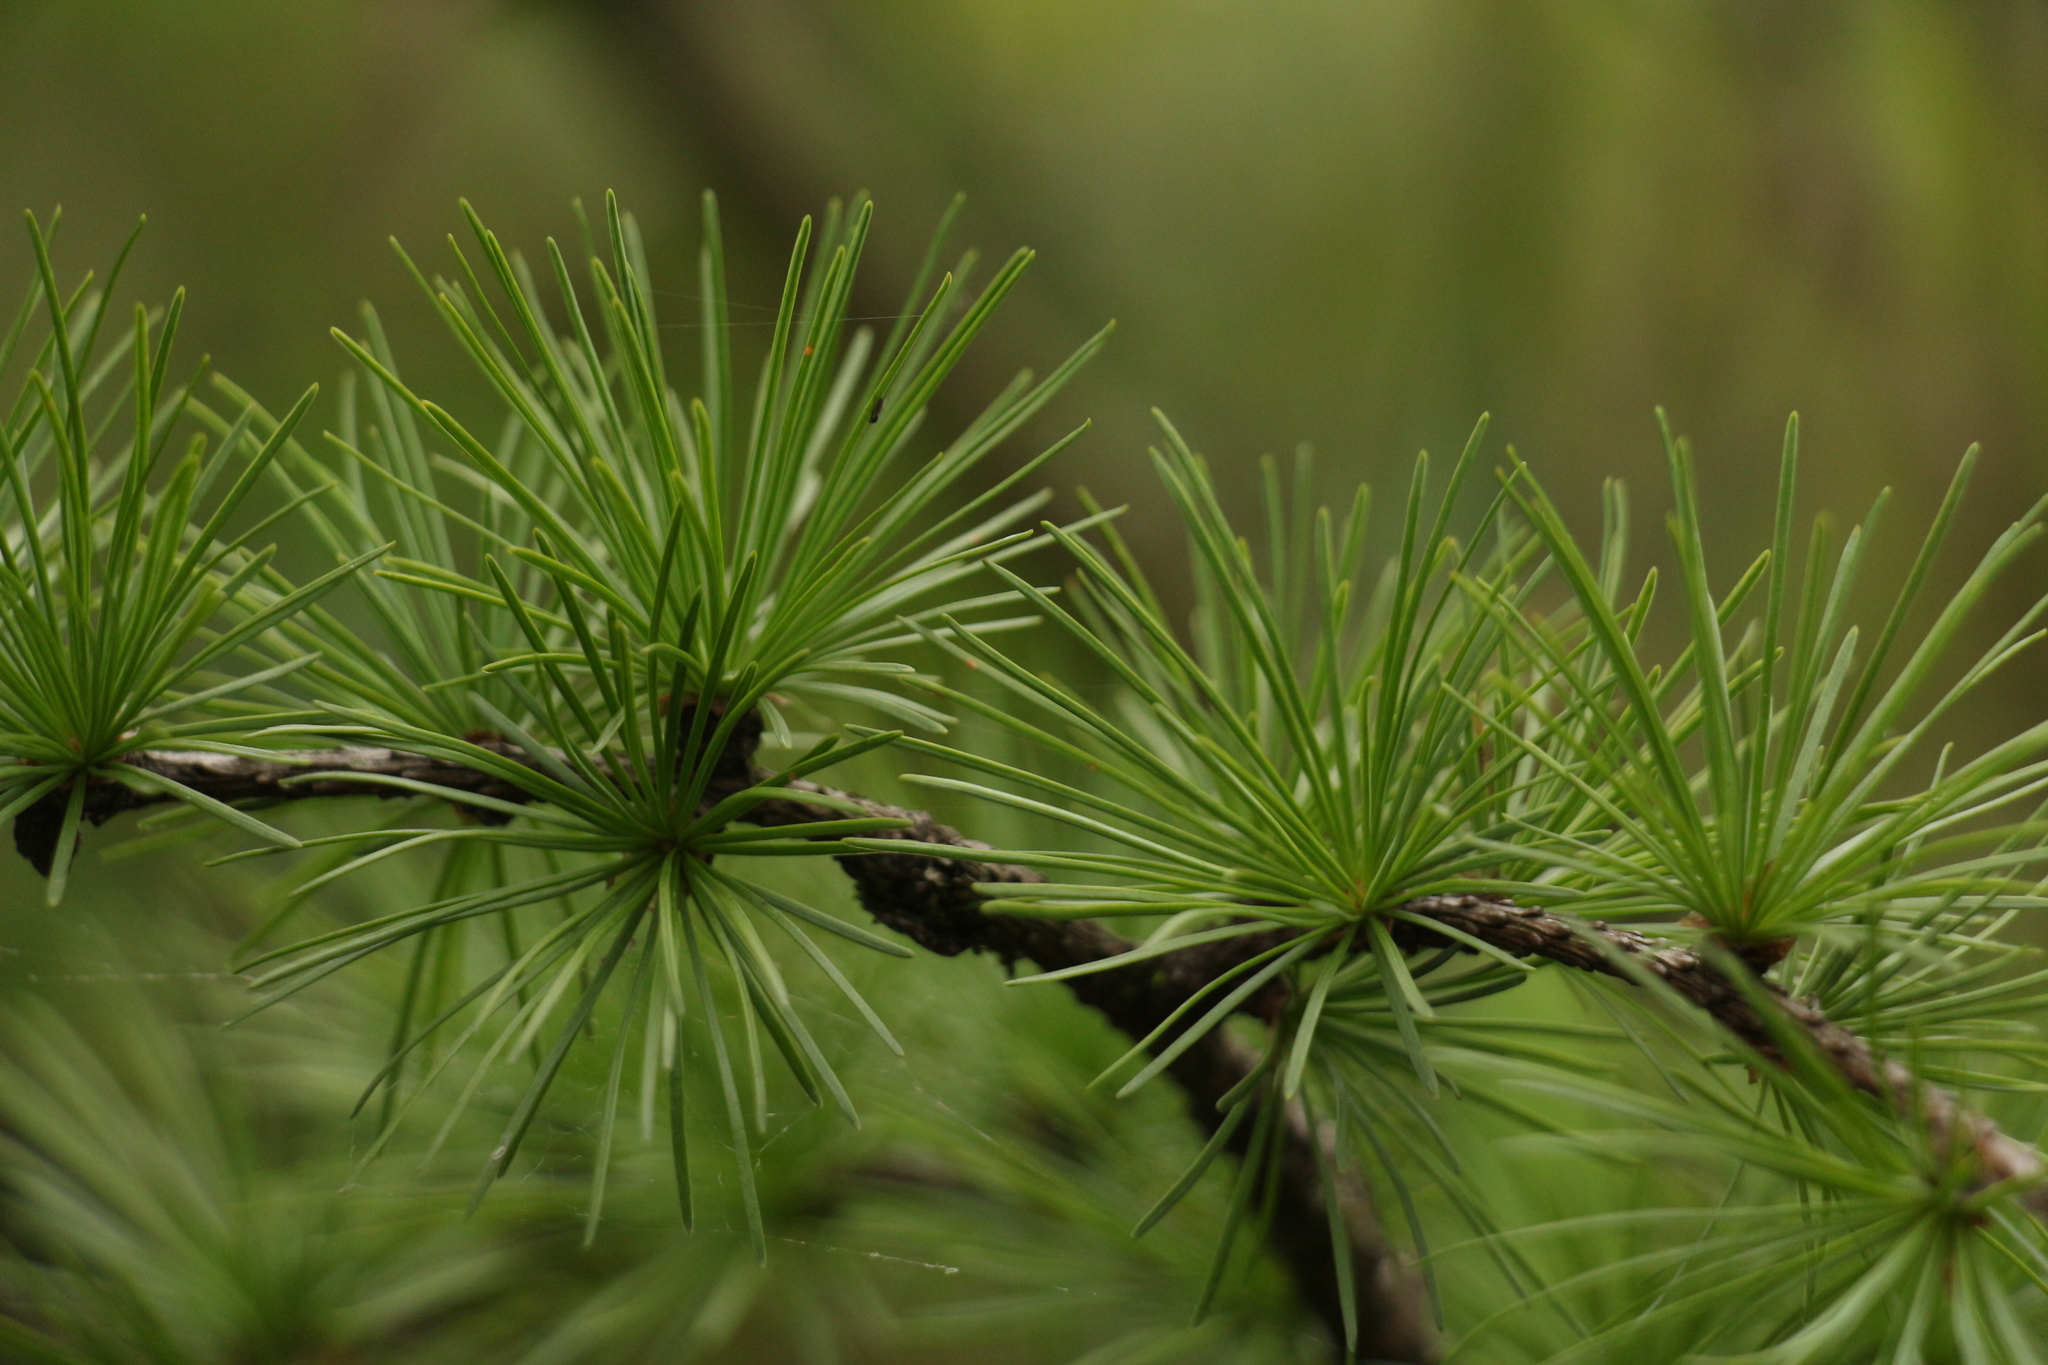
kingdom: Plantae
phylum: Tracheophyta
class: Pinopsida
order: Pinales
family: Pinaceae
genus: Larix
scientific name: Larix griffithii
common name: Sikkim larch
